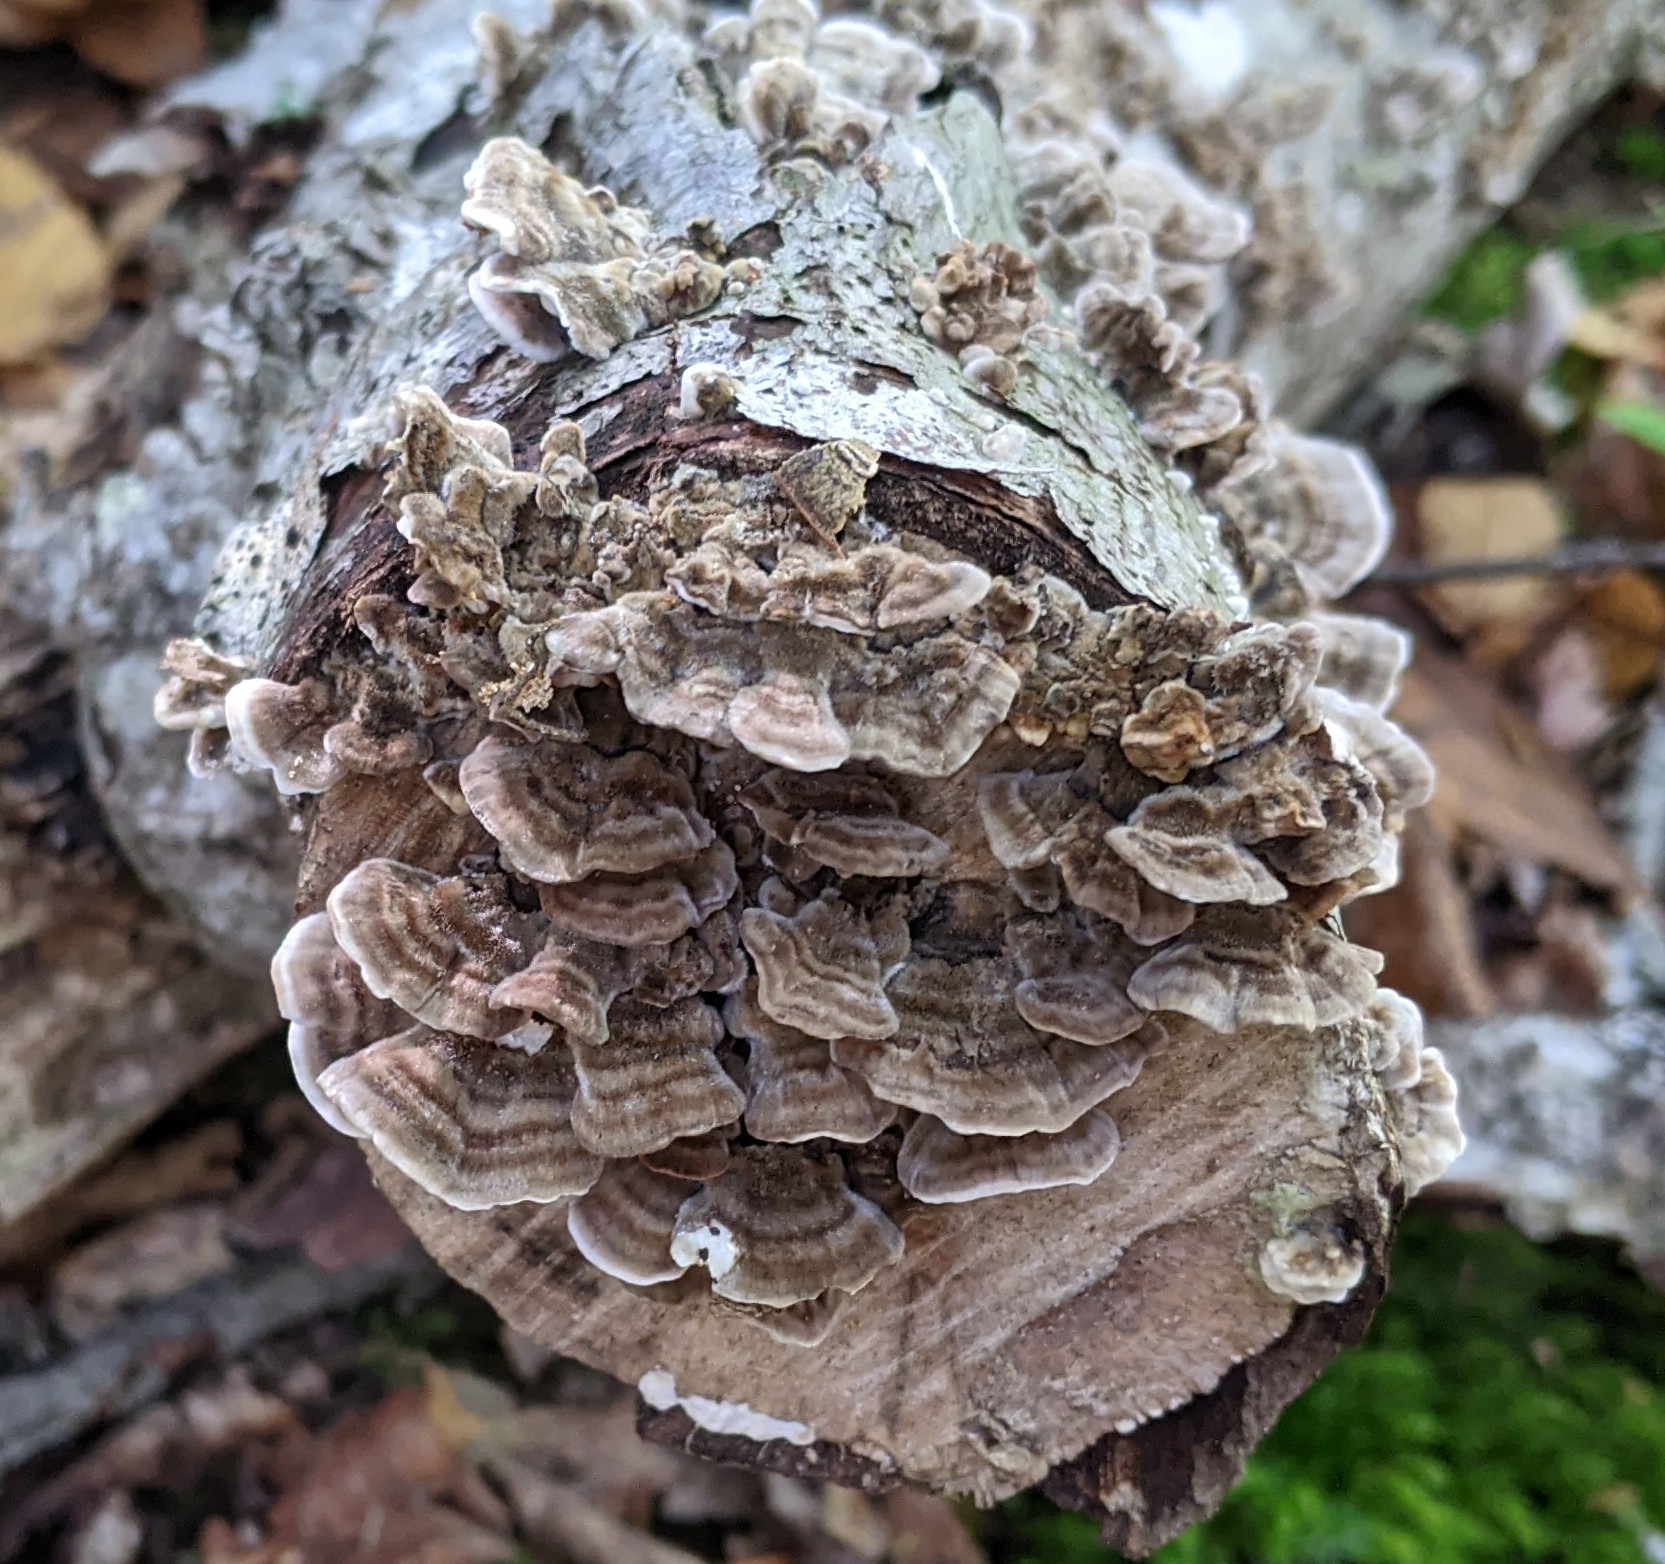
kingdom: Fungi
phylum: Basidiomycota
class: Agaricomycetes
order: Polyporales
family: Polyporaceae
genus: Trametes
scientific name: Trametes versicolor
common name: Turkeytail
